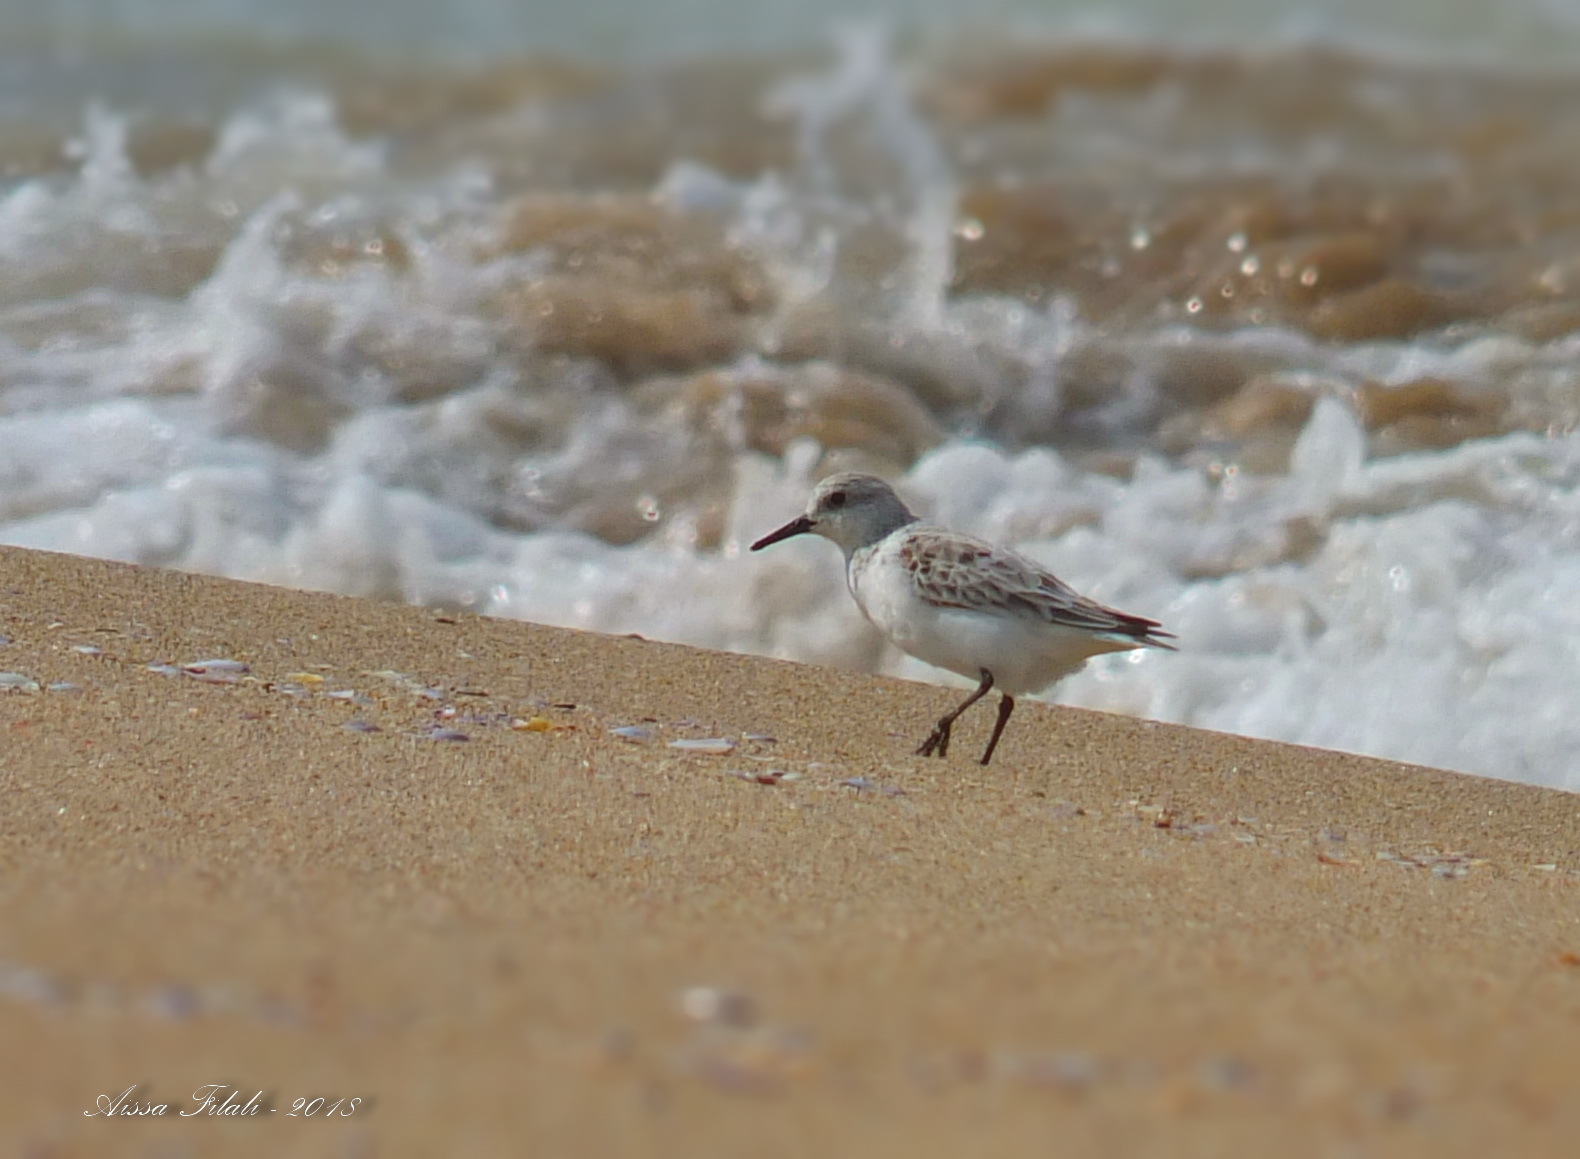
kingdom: Animalia
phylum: Chordata
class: Aves
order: Charadriiformes
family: Scolopacidae
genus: Calidris
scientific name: Calidris alba
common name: Sanderling
